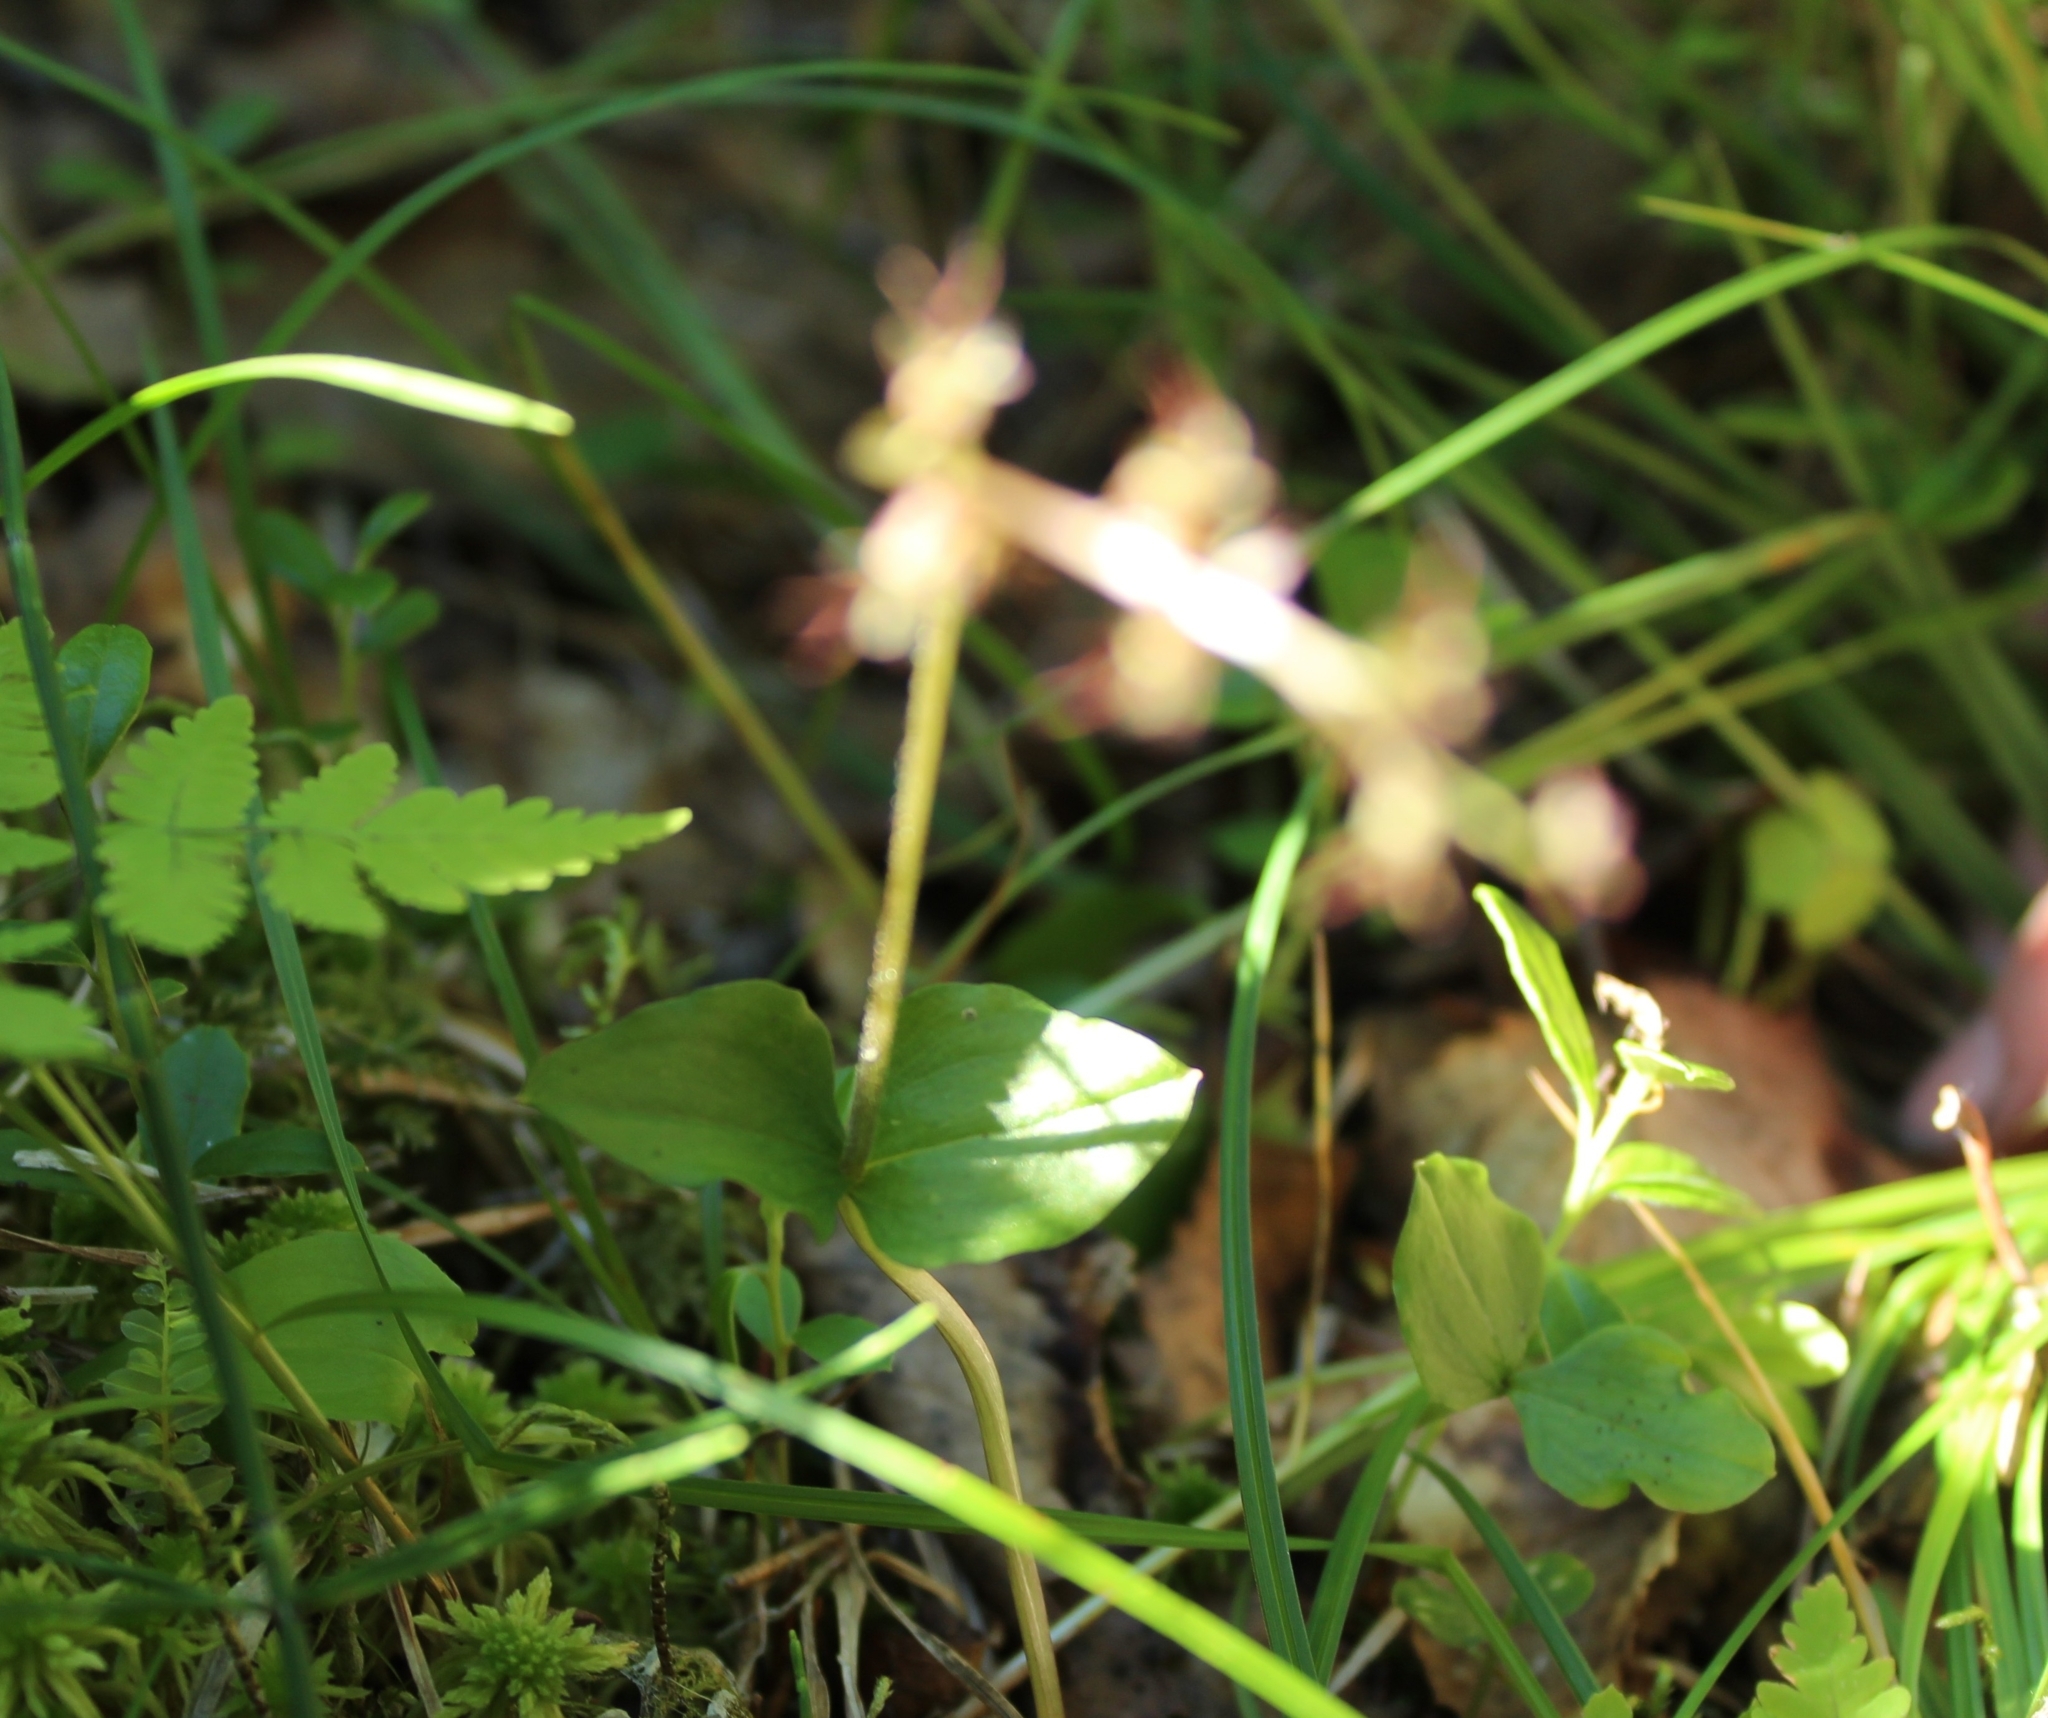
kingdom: Plantae
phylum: Tracheophyta
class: Liliopsida
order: Asparagales
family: Orchidaceae
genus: Neottia
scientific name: Neottia cordata
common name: Lesser twayblade
